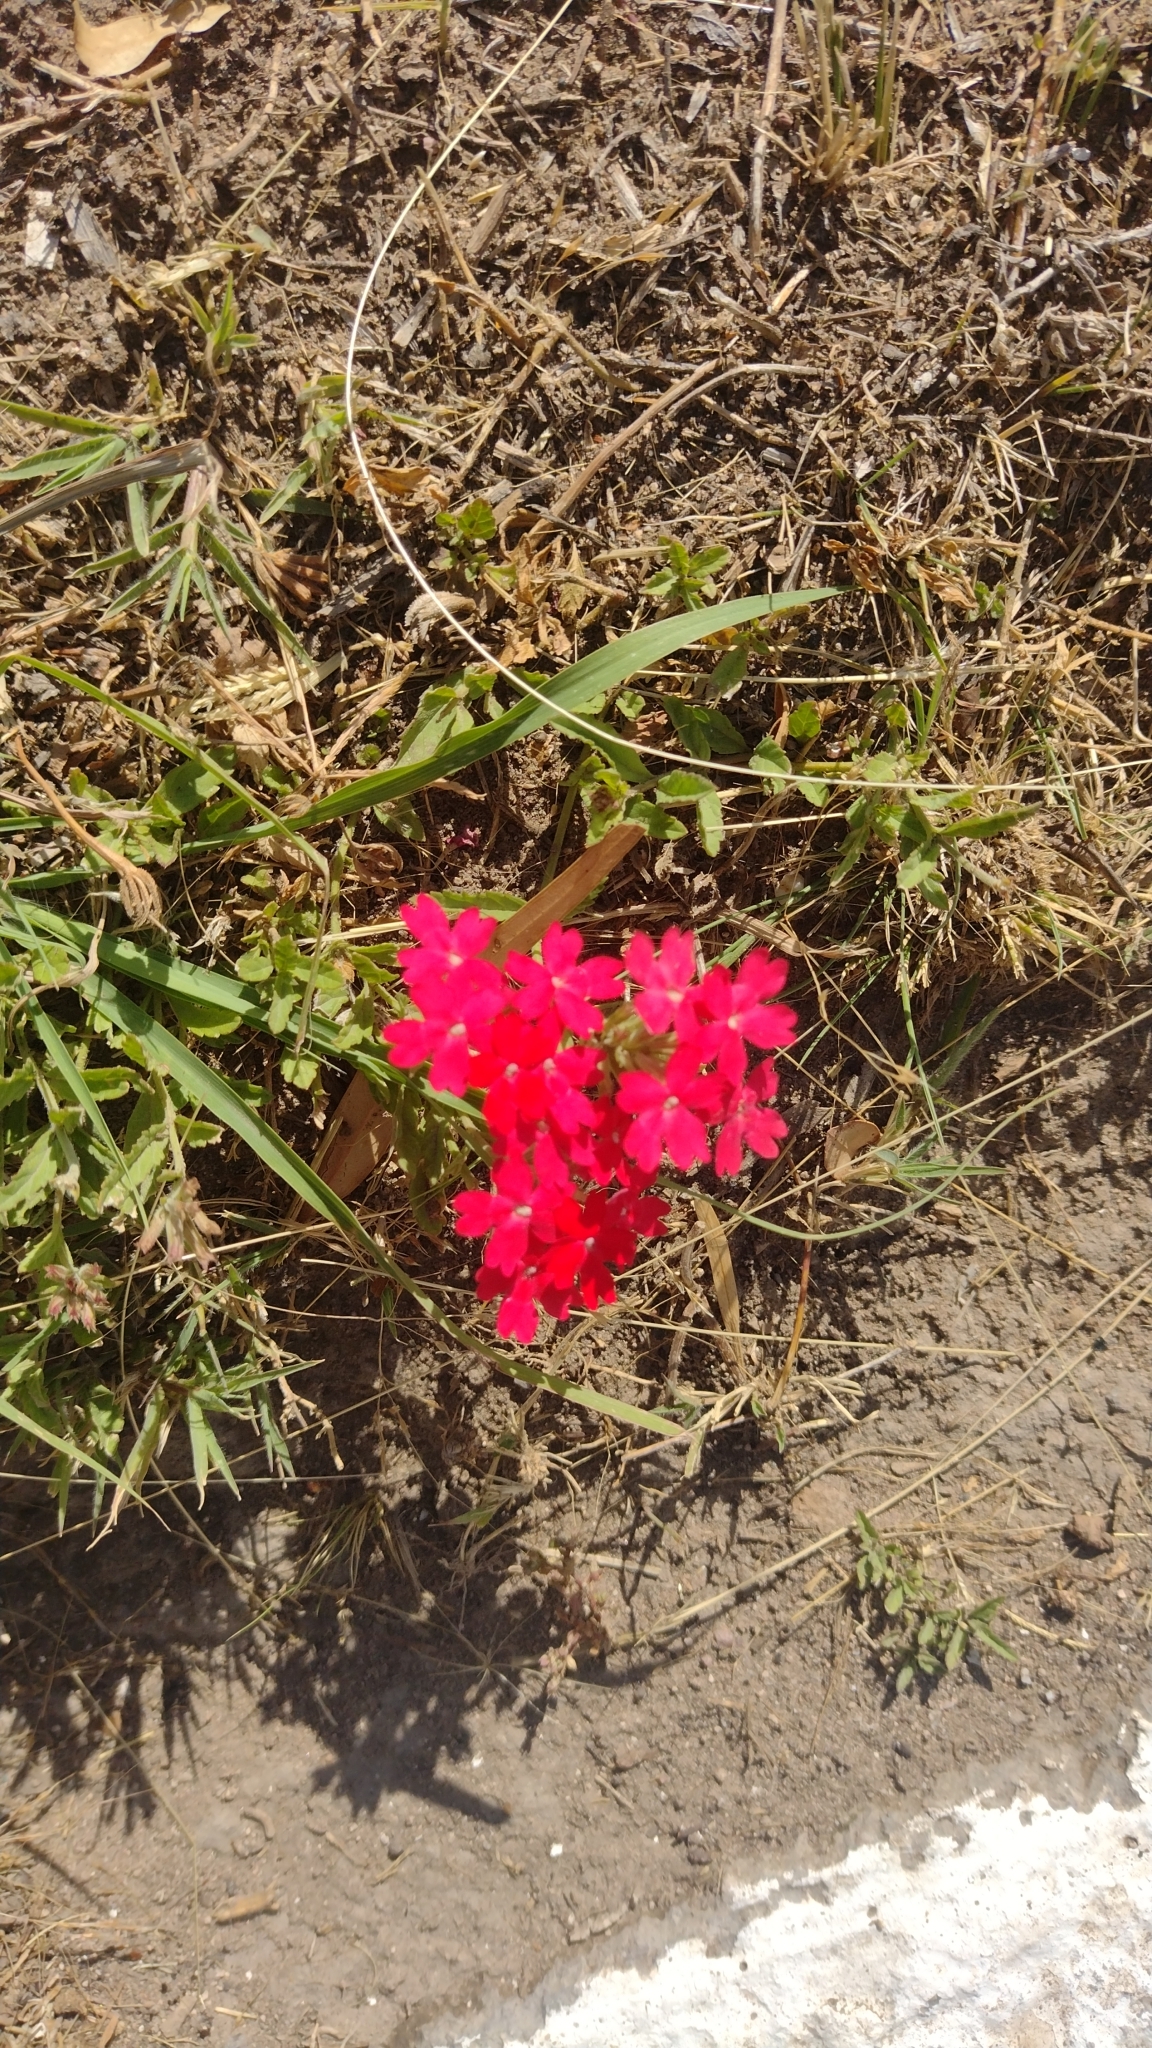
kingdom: Plantae
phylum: Tracheophyta
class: Magnoliopsida
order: Lamiales
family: Verbenaceae
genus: Verbena
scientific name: Verbena peruviana
